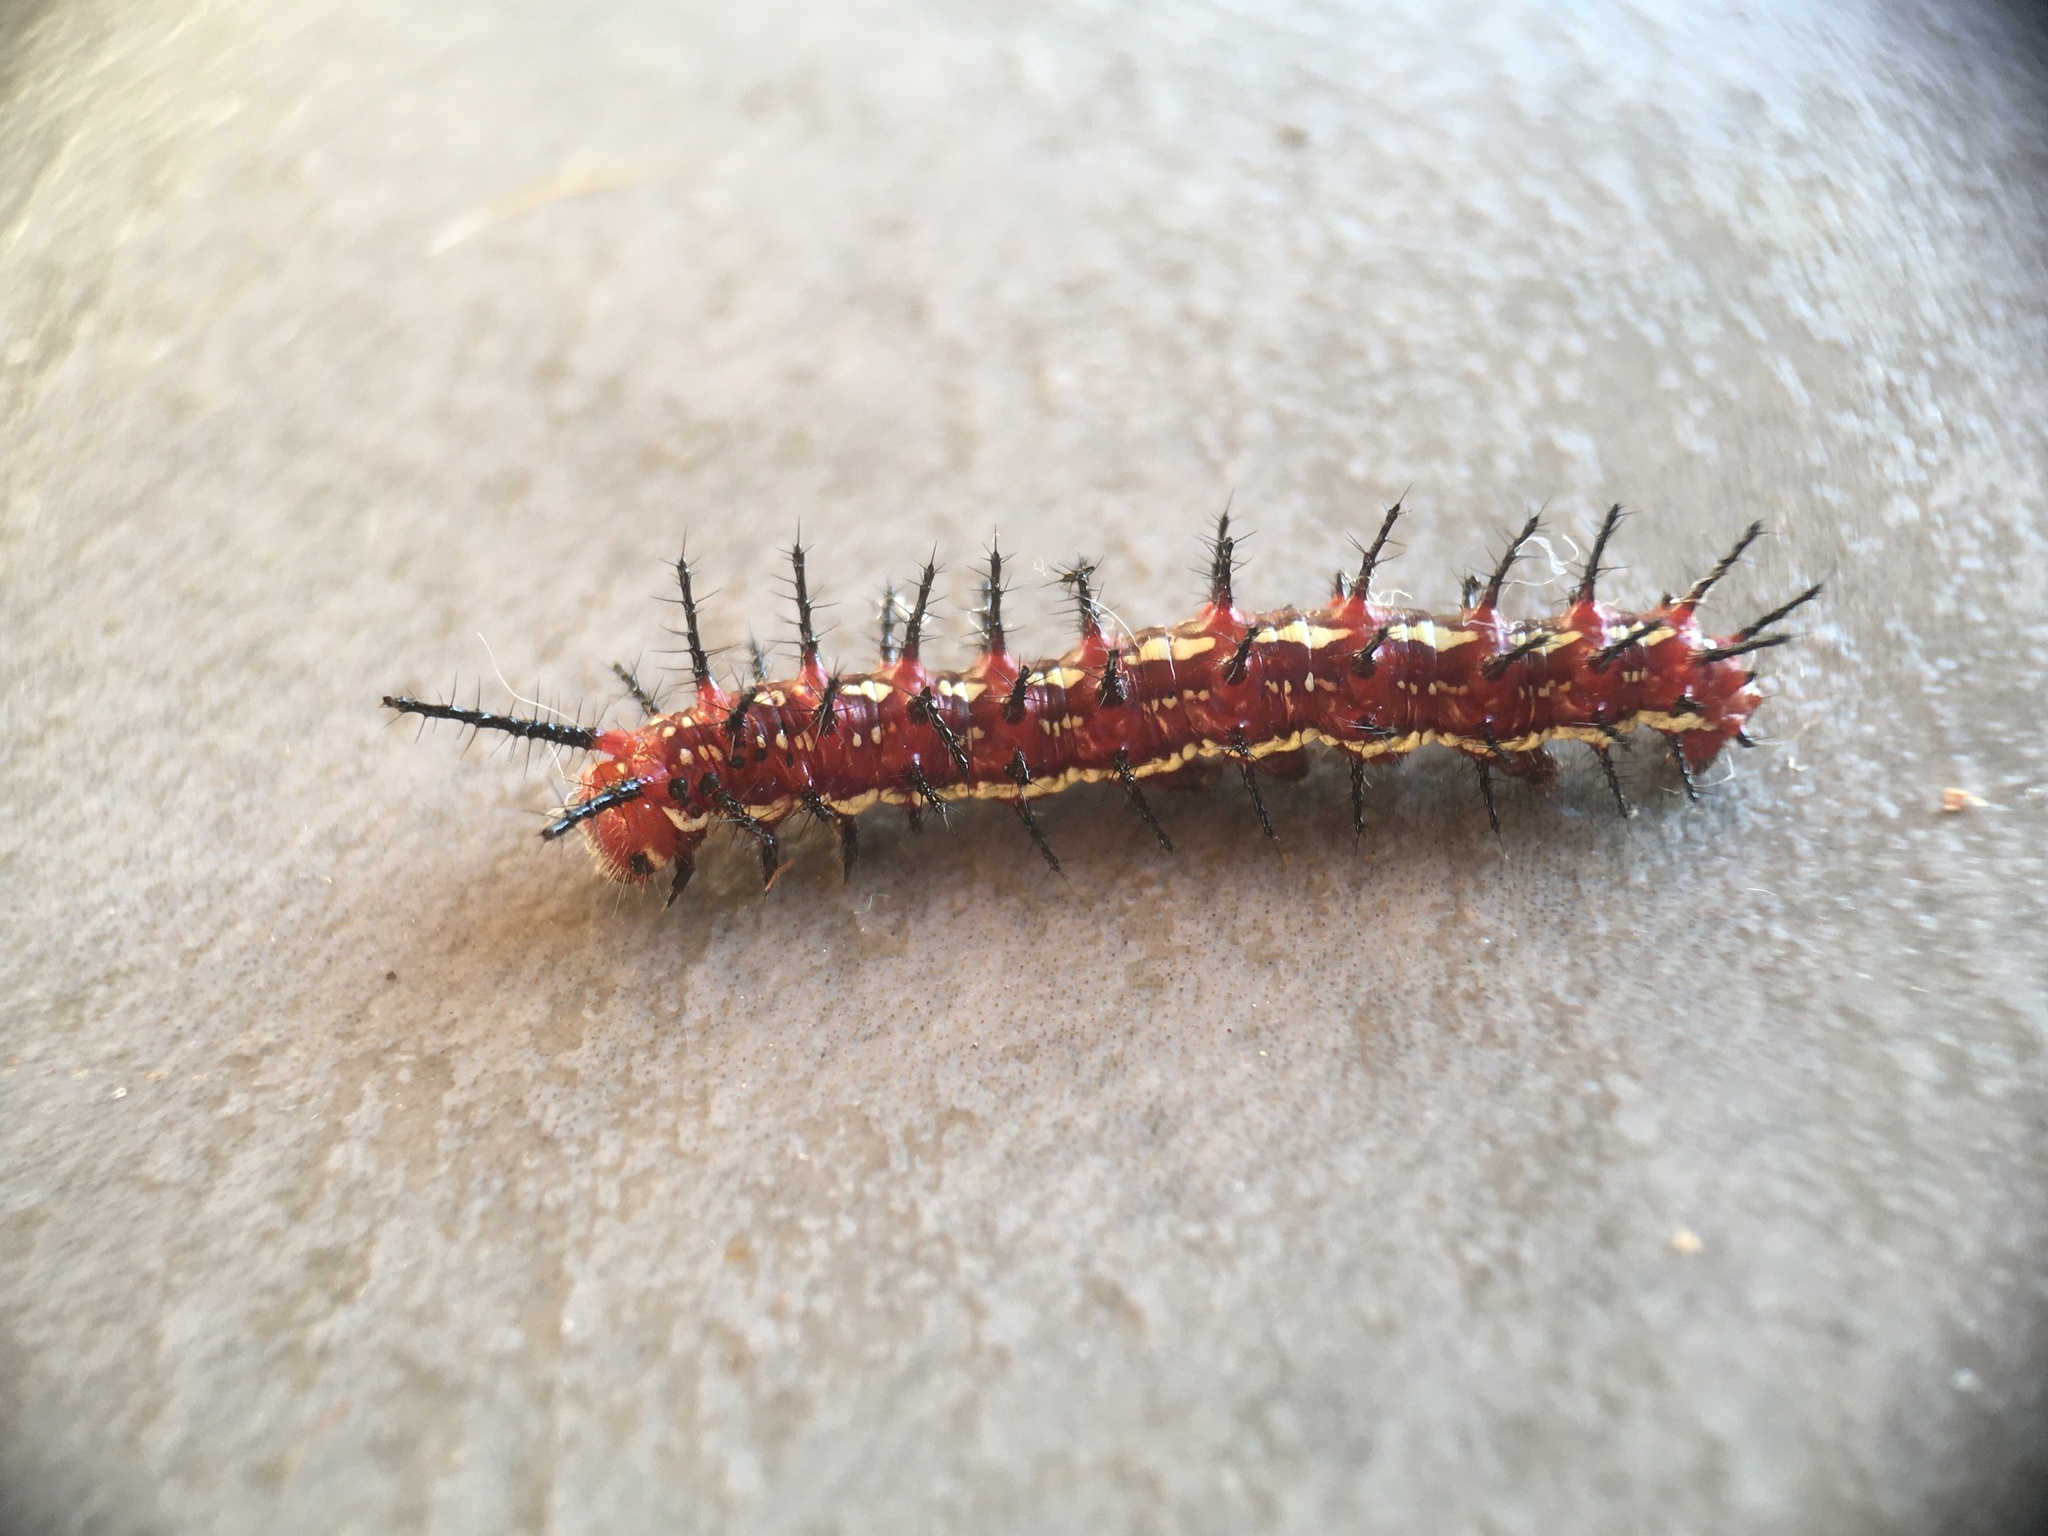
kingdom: Animalia
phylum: Arthropoda
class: Insecta
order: Lepidoptera
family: Nymphalidae
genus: Euptoieta
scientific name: Euptoieta hegesia
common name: Mexican fritillary
